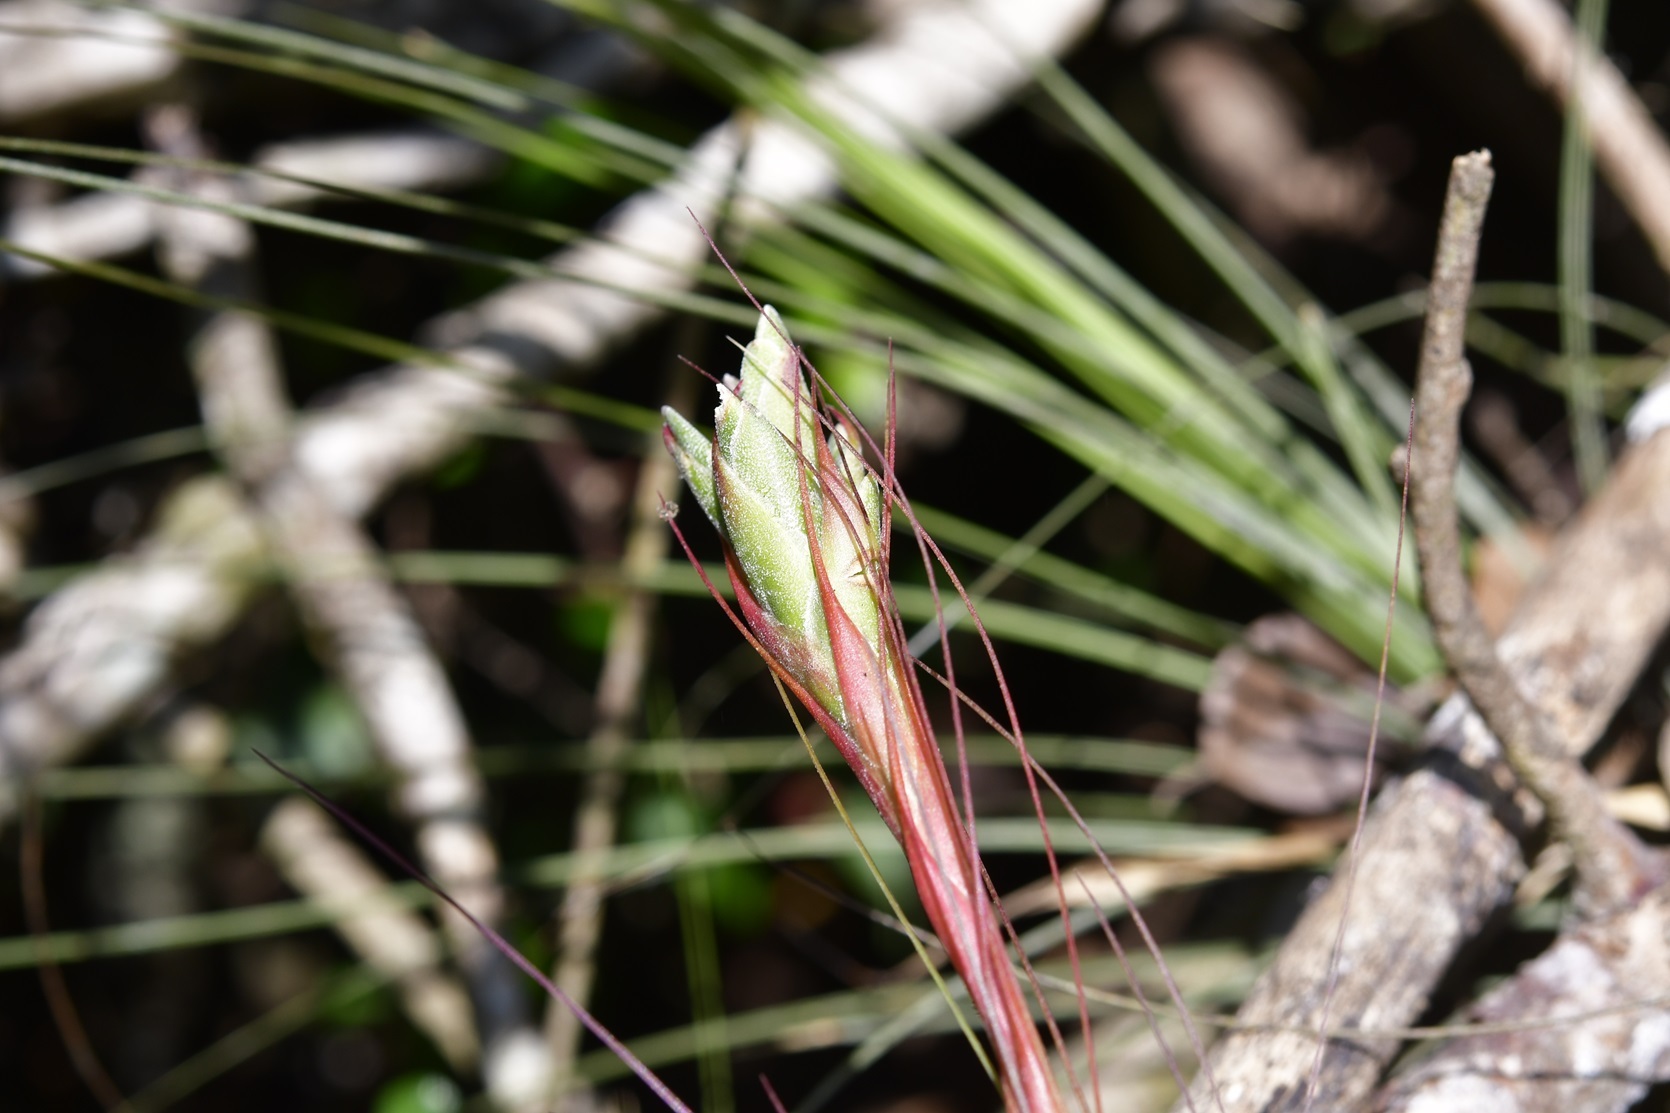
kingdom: Plantae
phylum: Tracheophyta
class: Liliopsida
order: Poales
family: Bromeliaceae
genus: Tillandsia
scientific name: Tillandsia juncea
